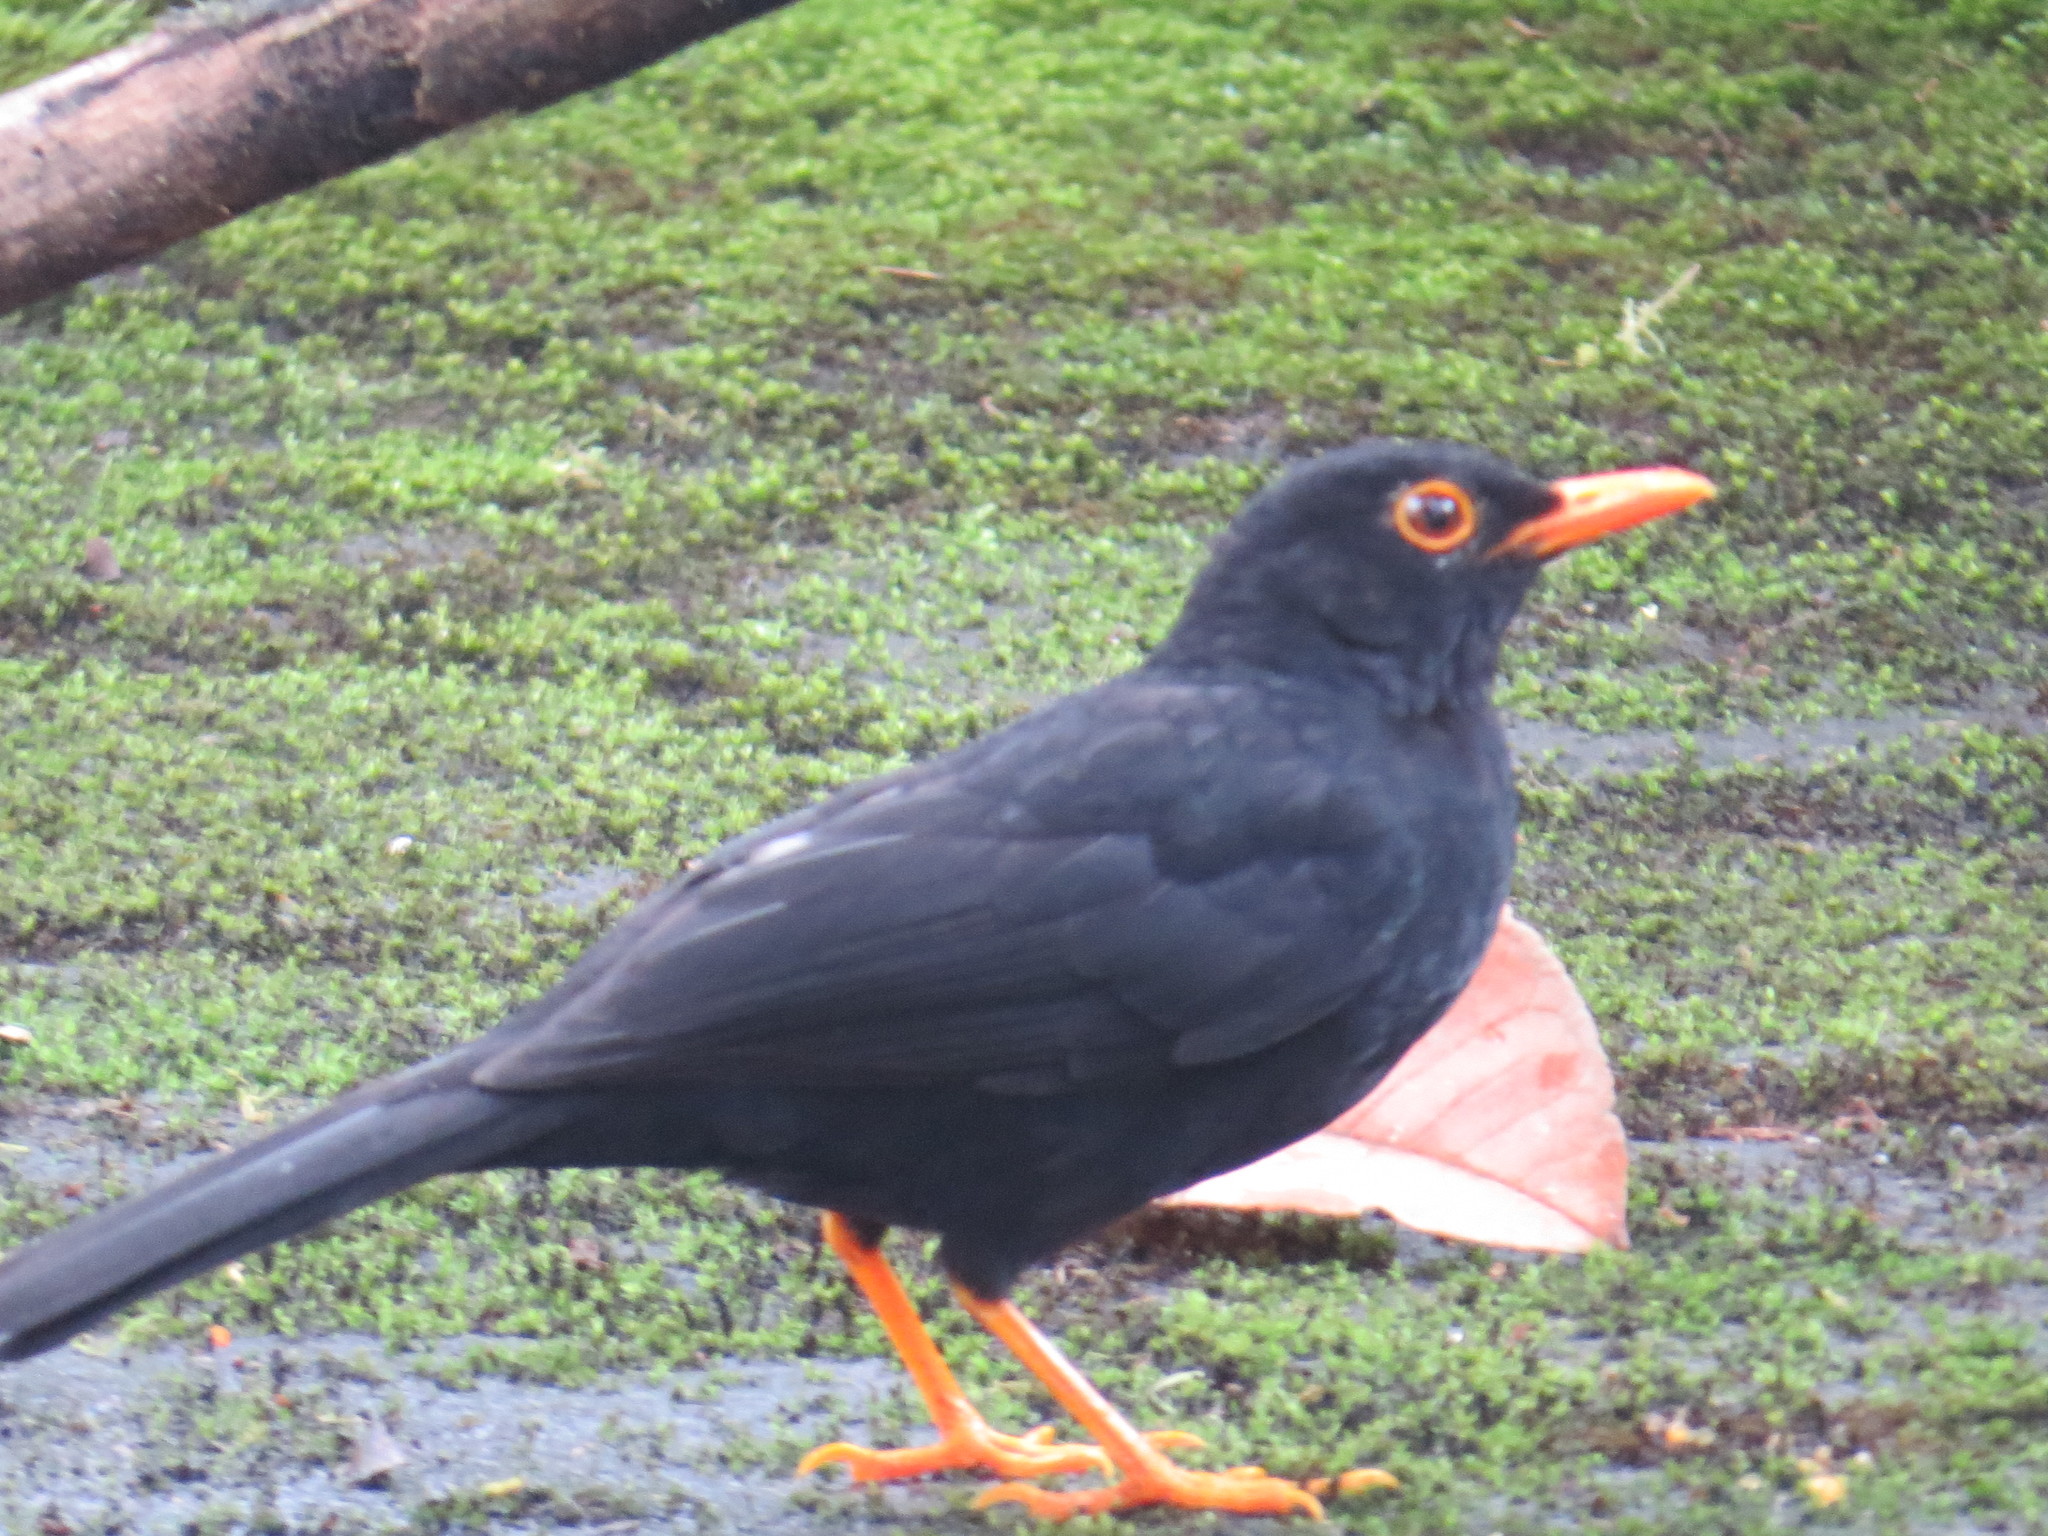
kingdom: Animalia
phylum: Chordata
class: Aves
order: Passeriformes
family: Turdidae
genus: Turdus
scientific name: Turdus serranus
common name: Glossy-black thrush
